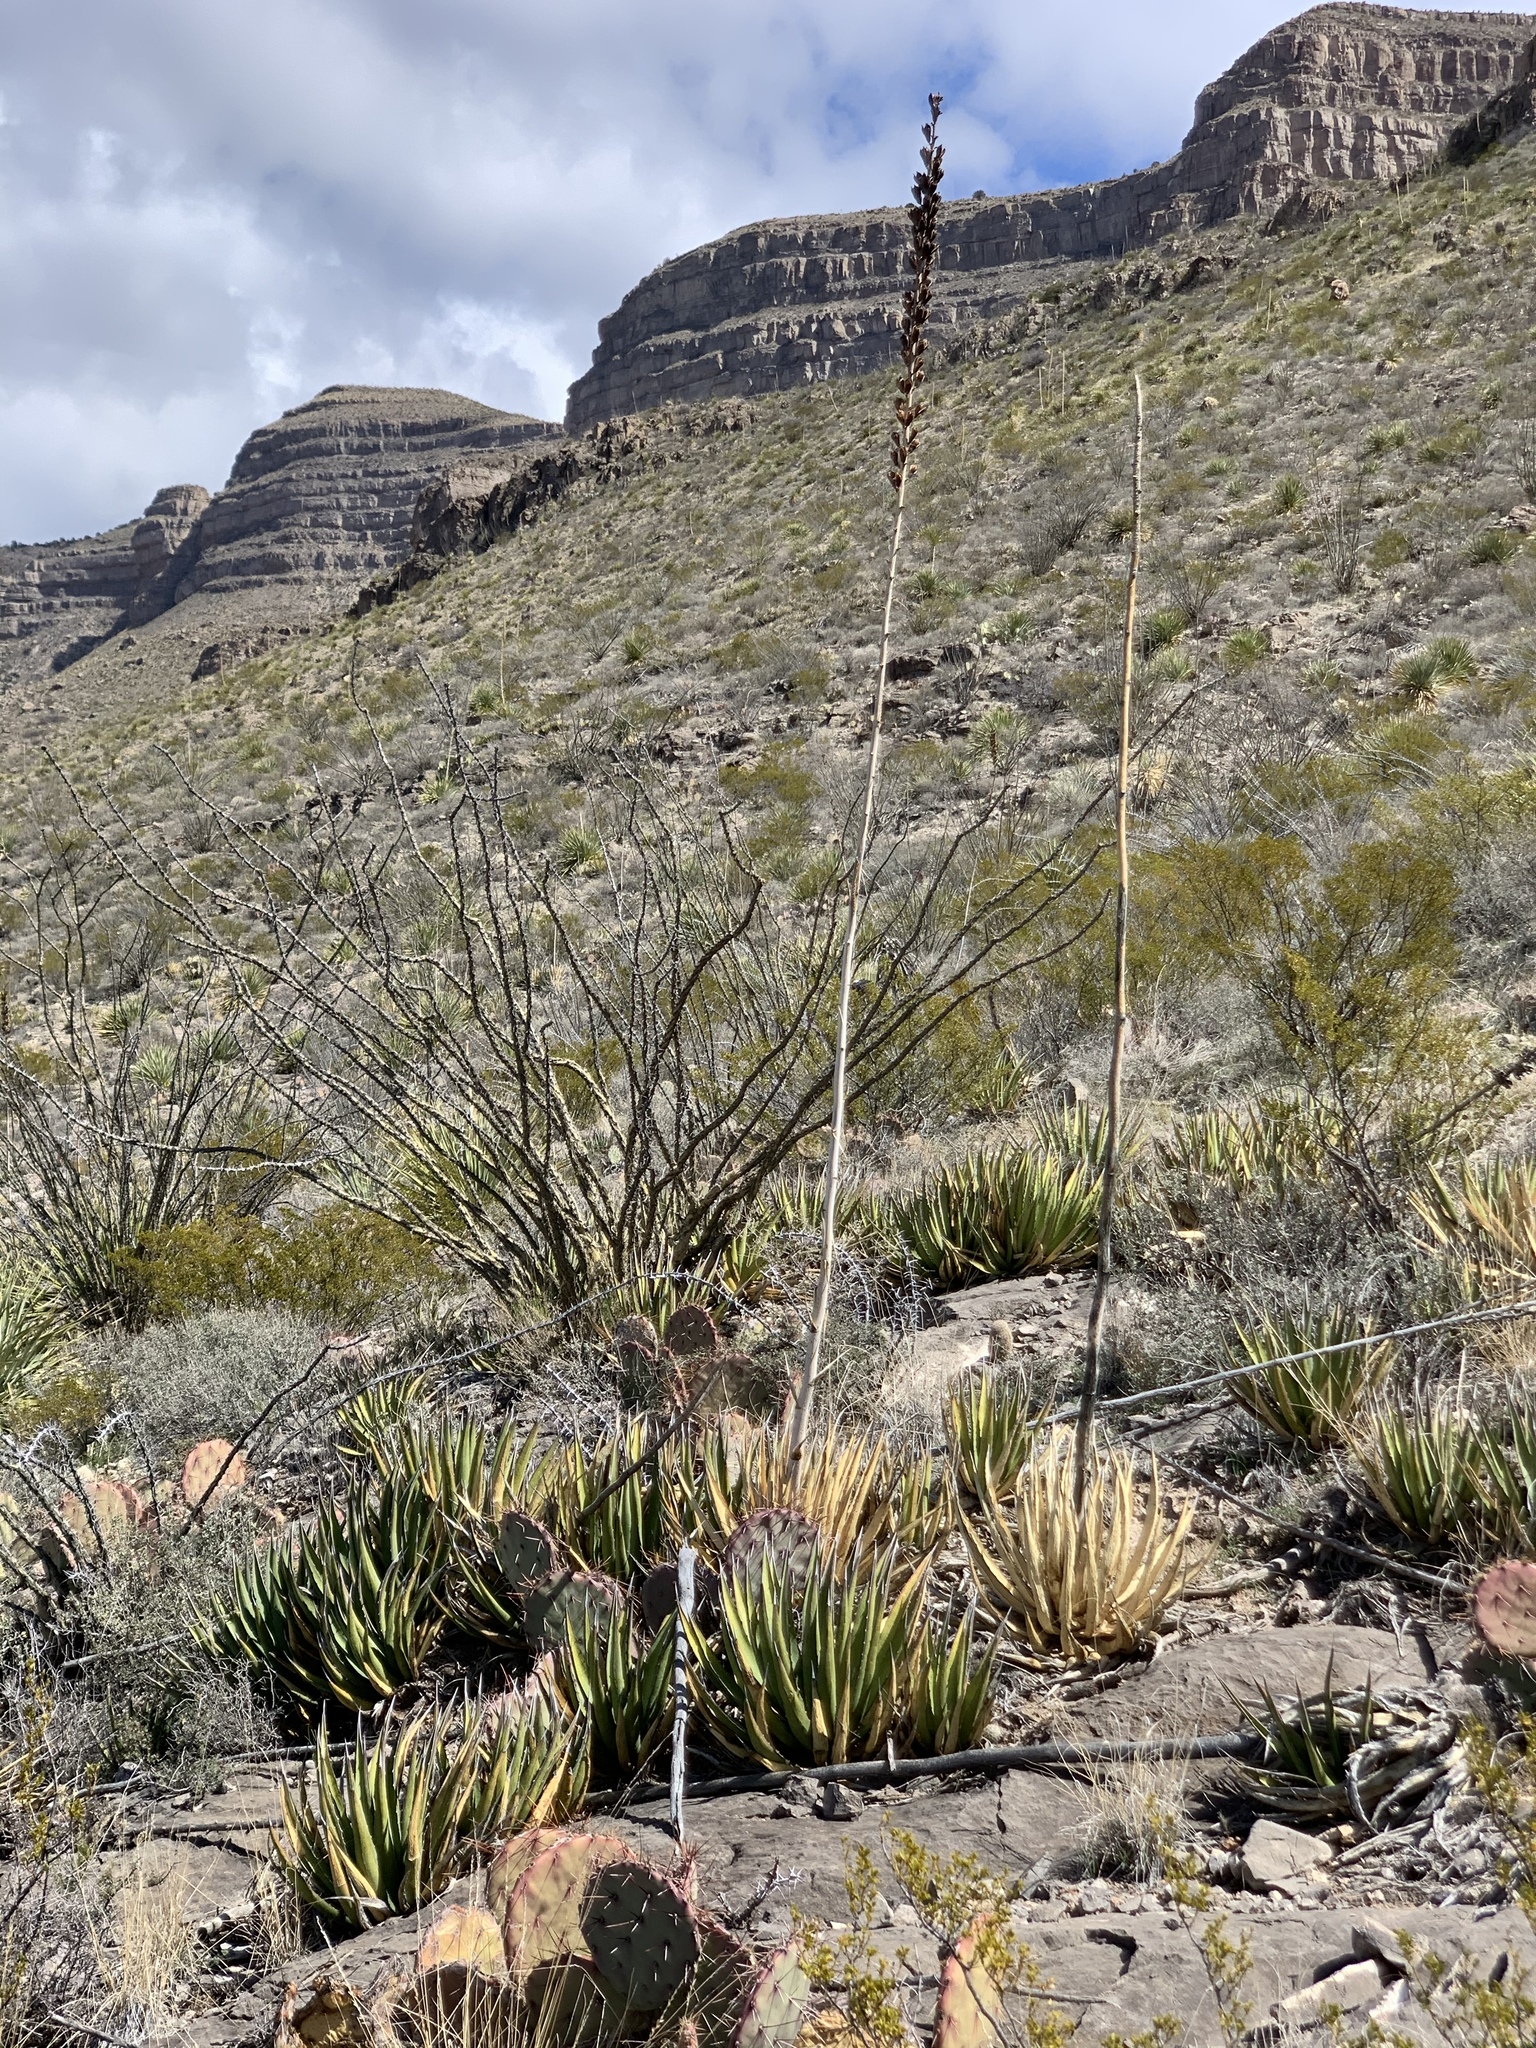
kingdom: Plantae
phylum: Tracheophyta
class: Liliopsida
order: Asparagales
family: Asparagaceae
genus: Agave
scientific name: Agave lechuguilla
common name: Lecheguilla agave
